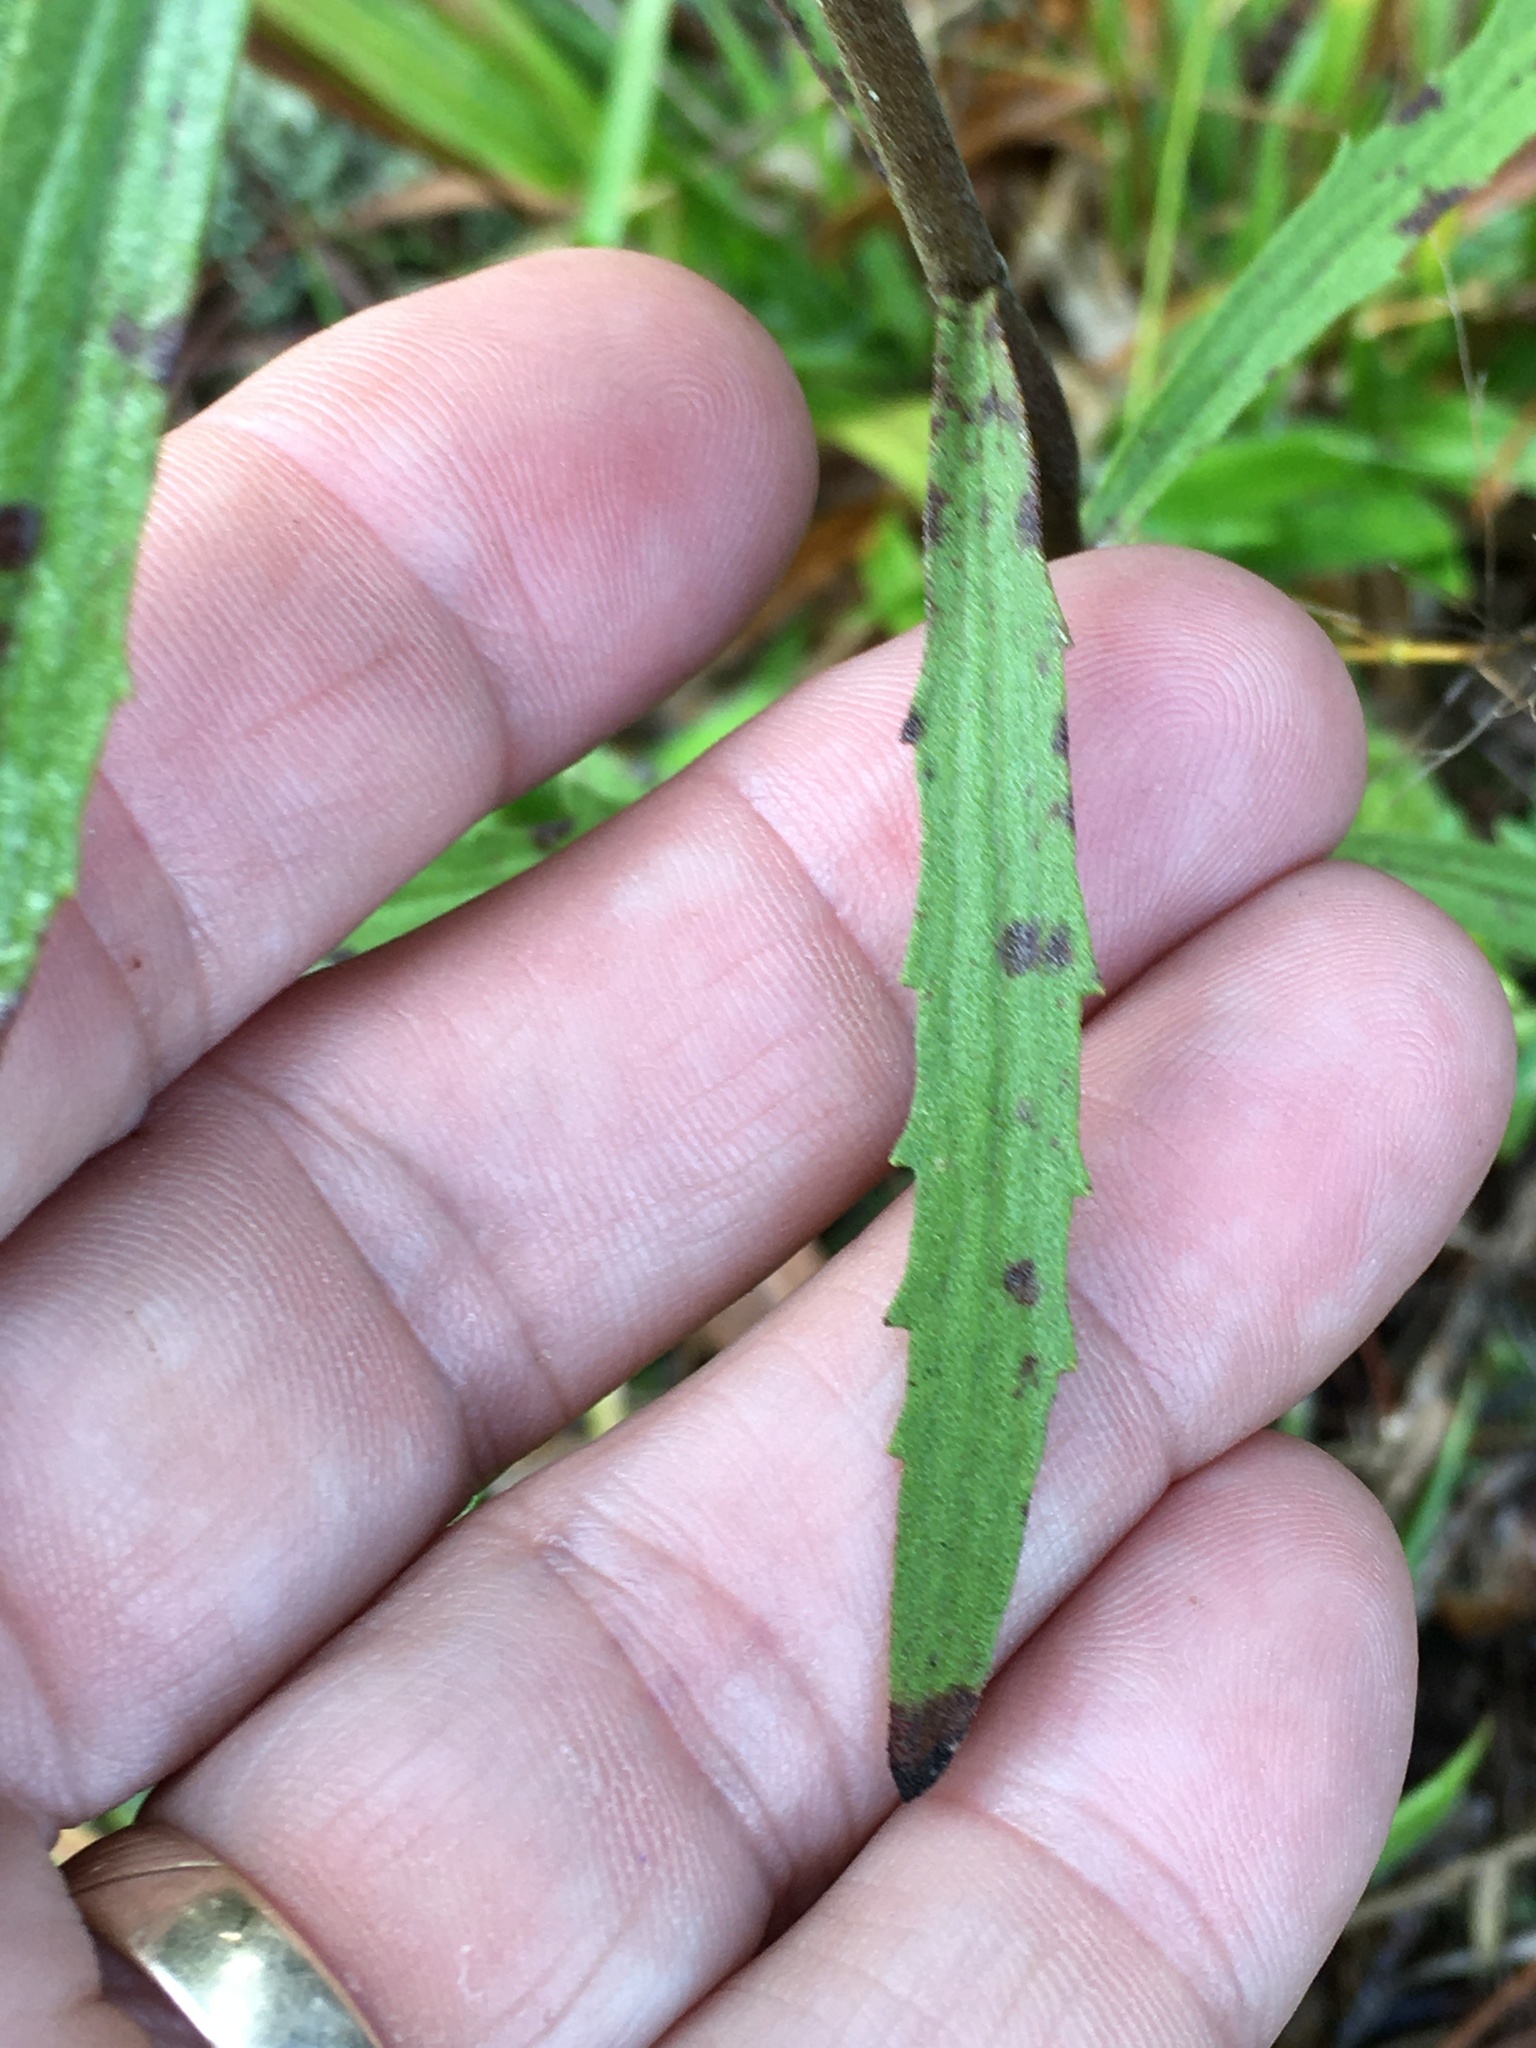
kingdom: Plantae
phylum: Tracheophyta
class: Magnoliopsida
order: Asterales
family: Asteraceae
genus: Eupatorium
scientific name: Eupatorium torreyanum
